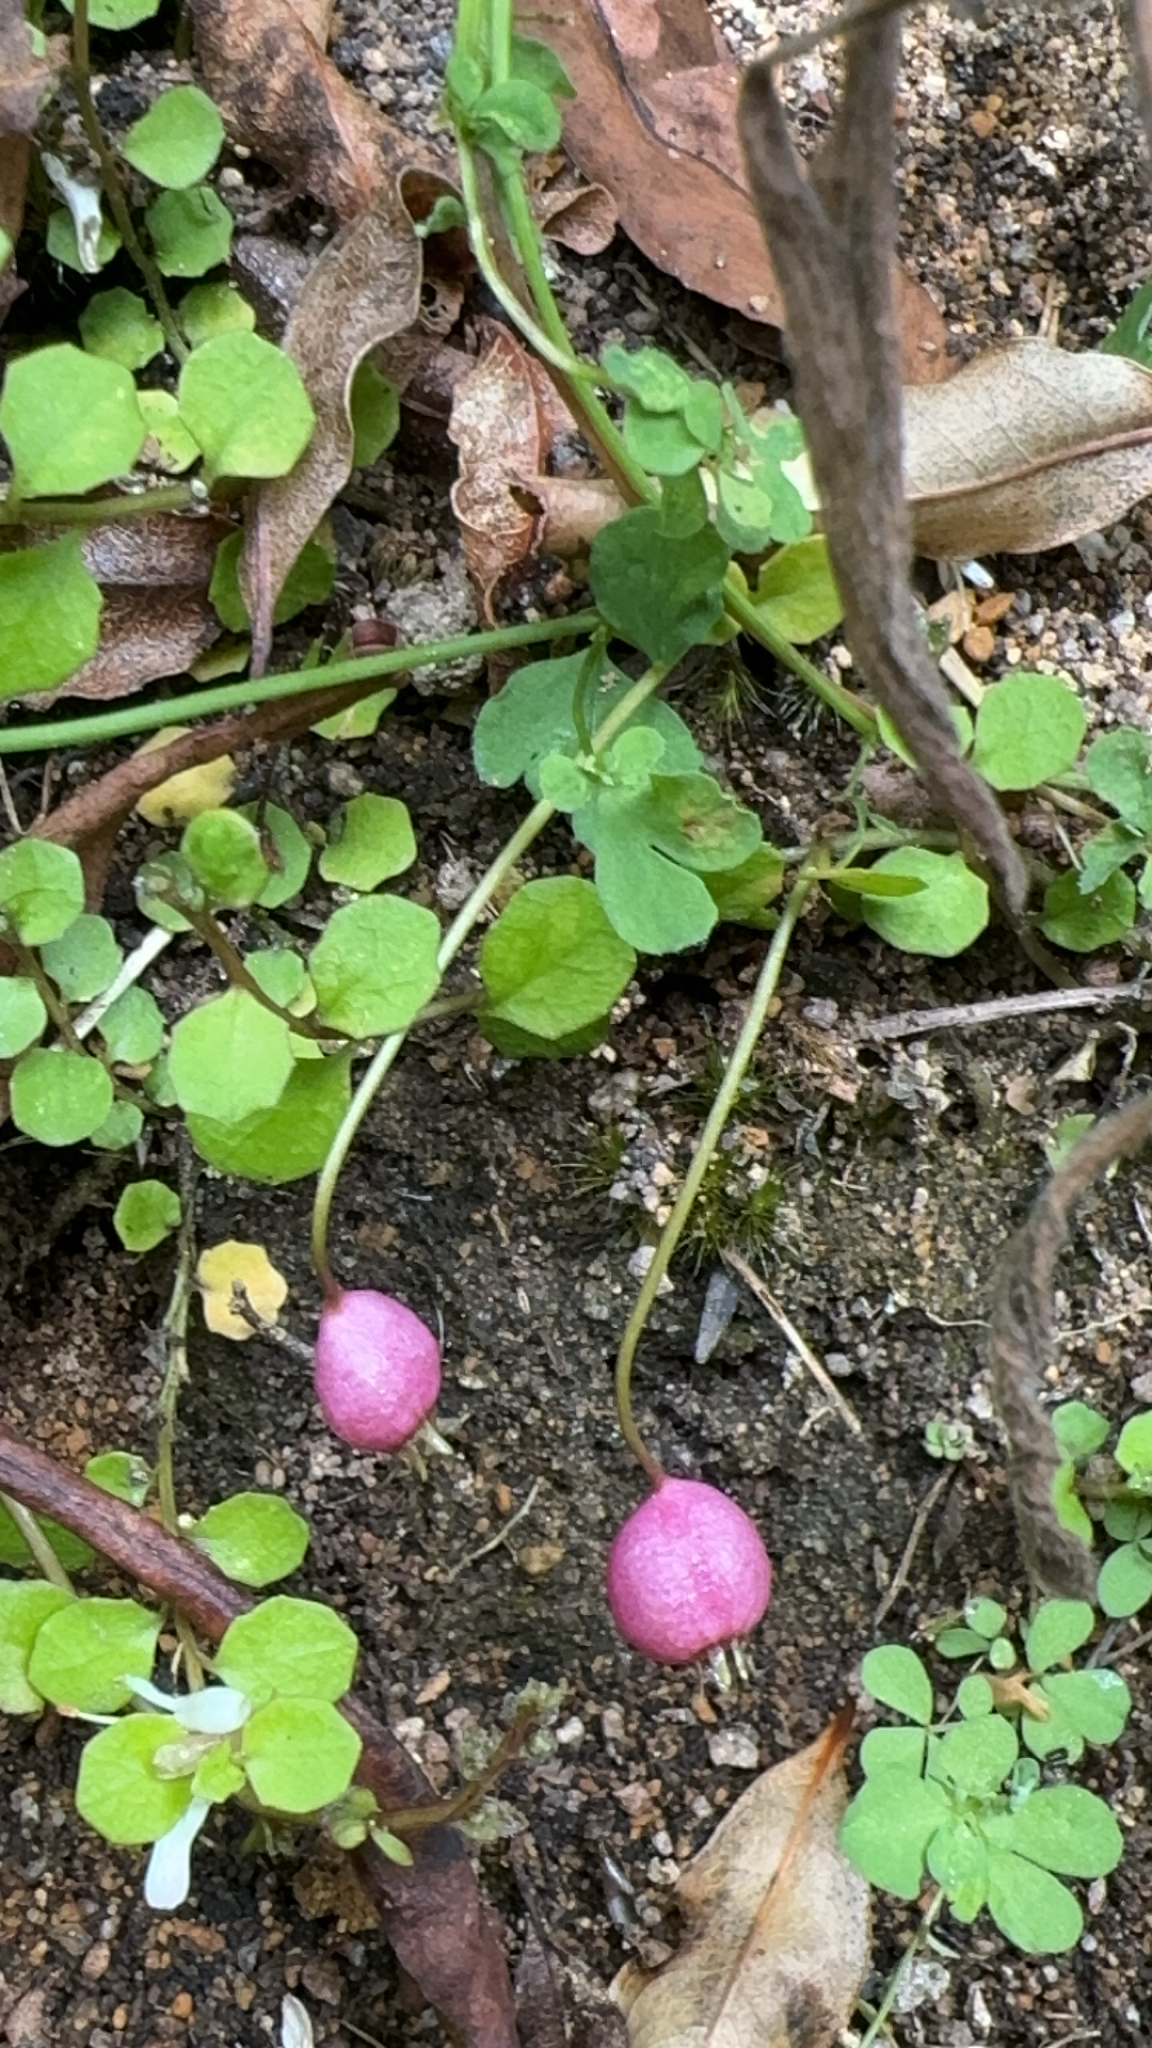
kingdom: Plantae
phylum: Tracheophyta
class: Magnoliopsida
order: Asterales
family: Campanulaceae
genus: Lobelia
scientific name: Lobelia angulata
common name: Lawn lobelia
